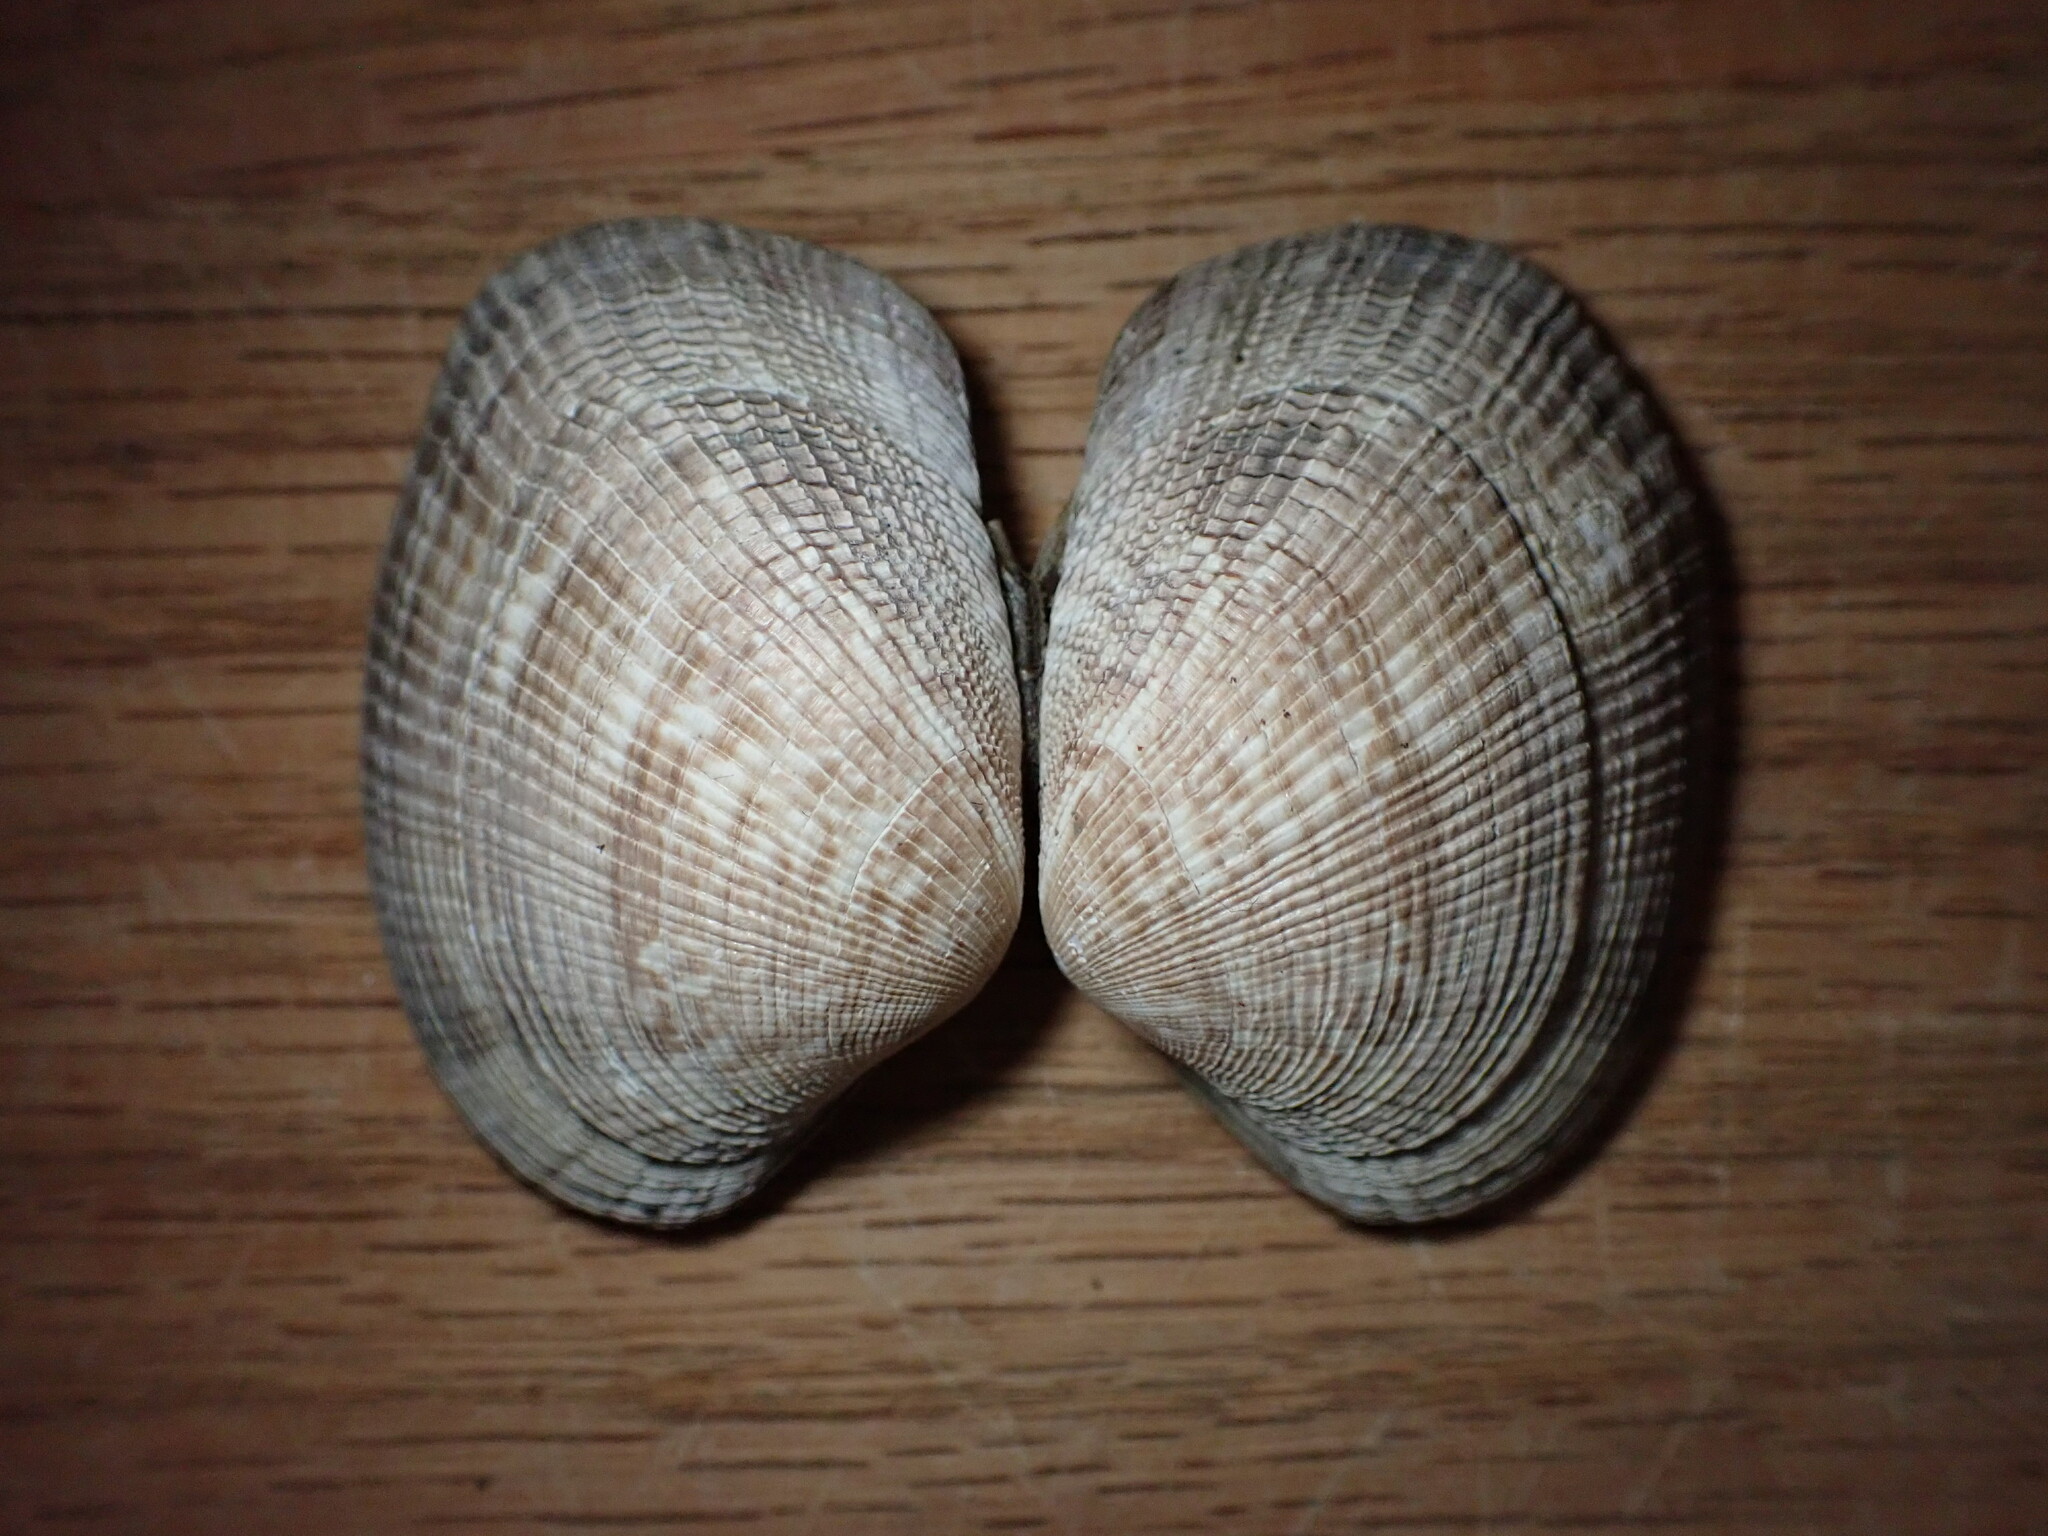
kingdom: Animalia
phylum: Mollusca
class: Bivalvia
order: Venerida
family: Veneridae
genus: Ruditapes
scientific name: Ruditapes philippinarum
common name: Manila clam
